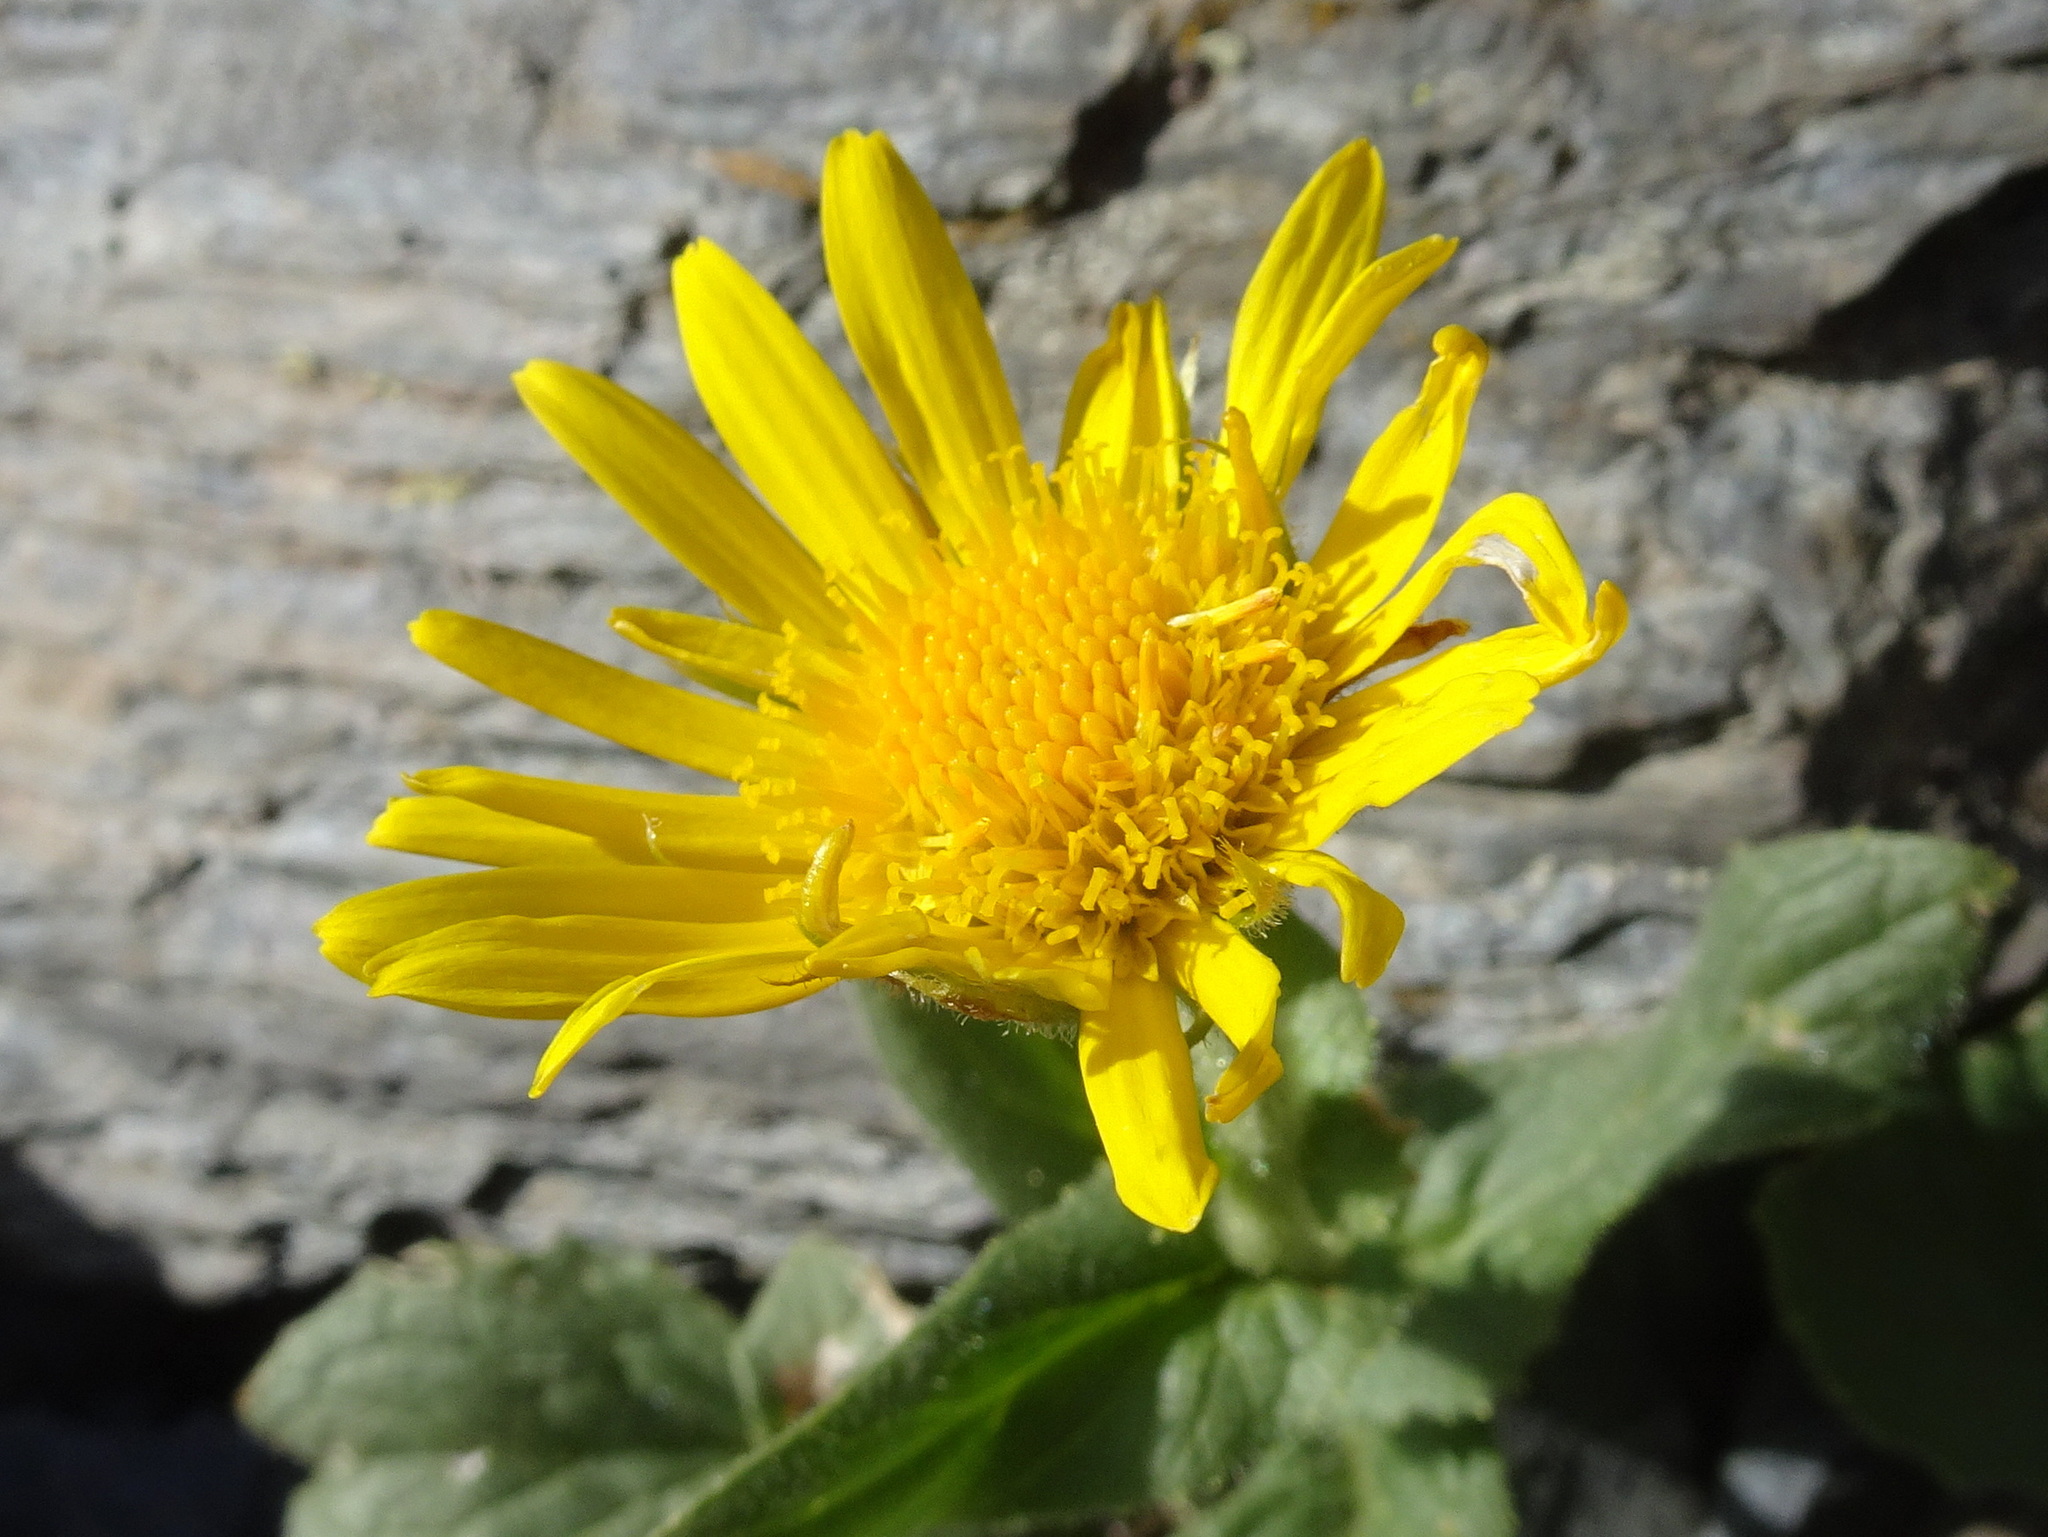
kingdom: Plantae
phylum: Tracheophyta
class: Magnoliopsida
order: Asterales
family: Asteraceae
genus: Doronicum
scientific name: Doronicum grandiflorum
